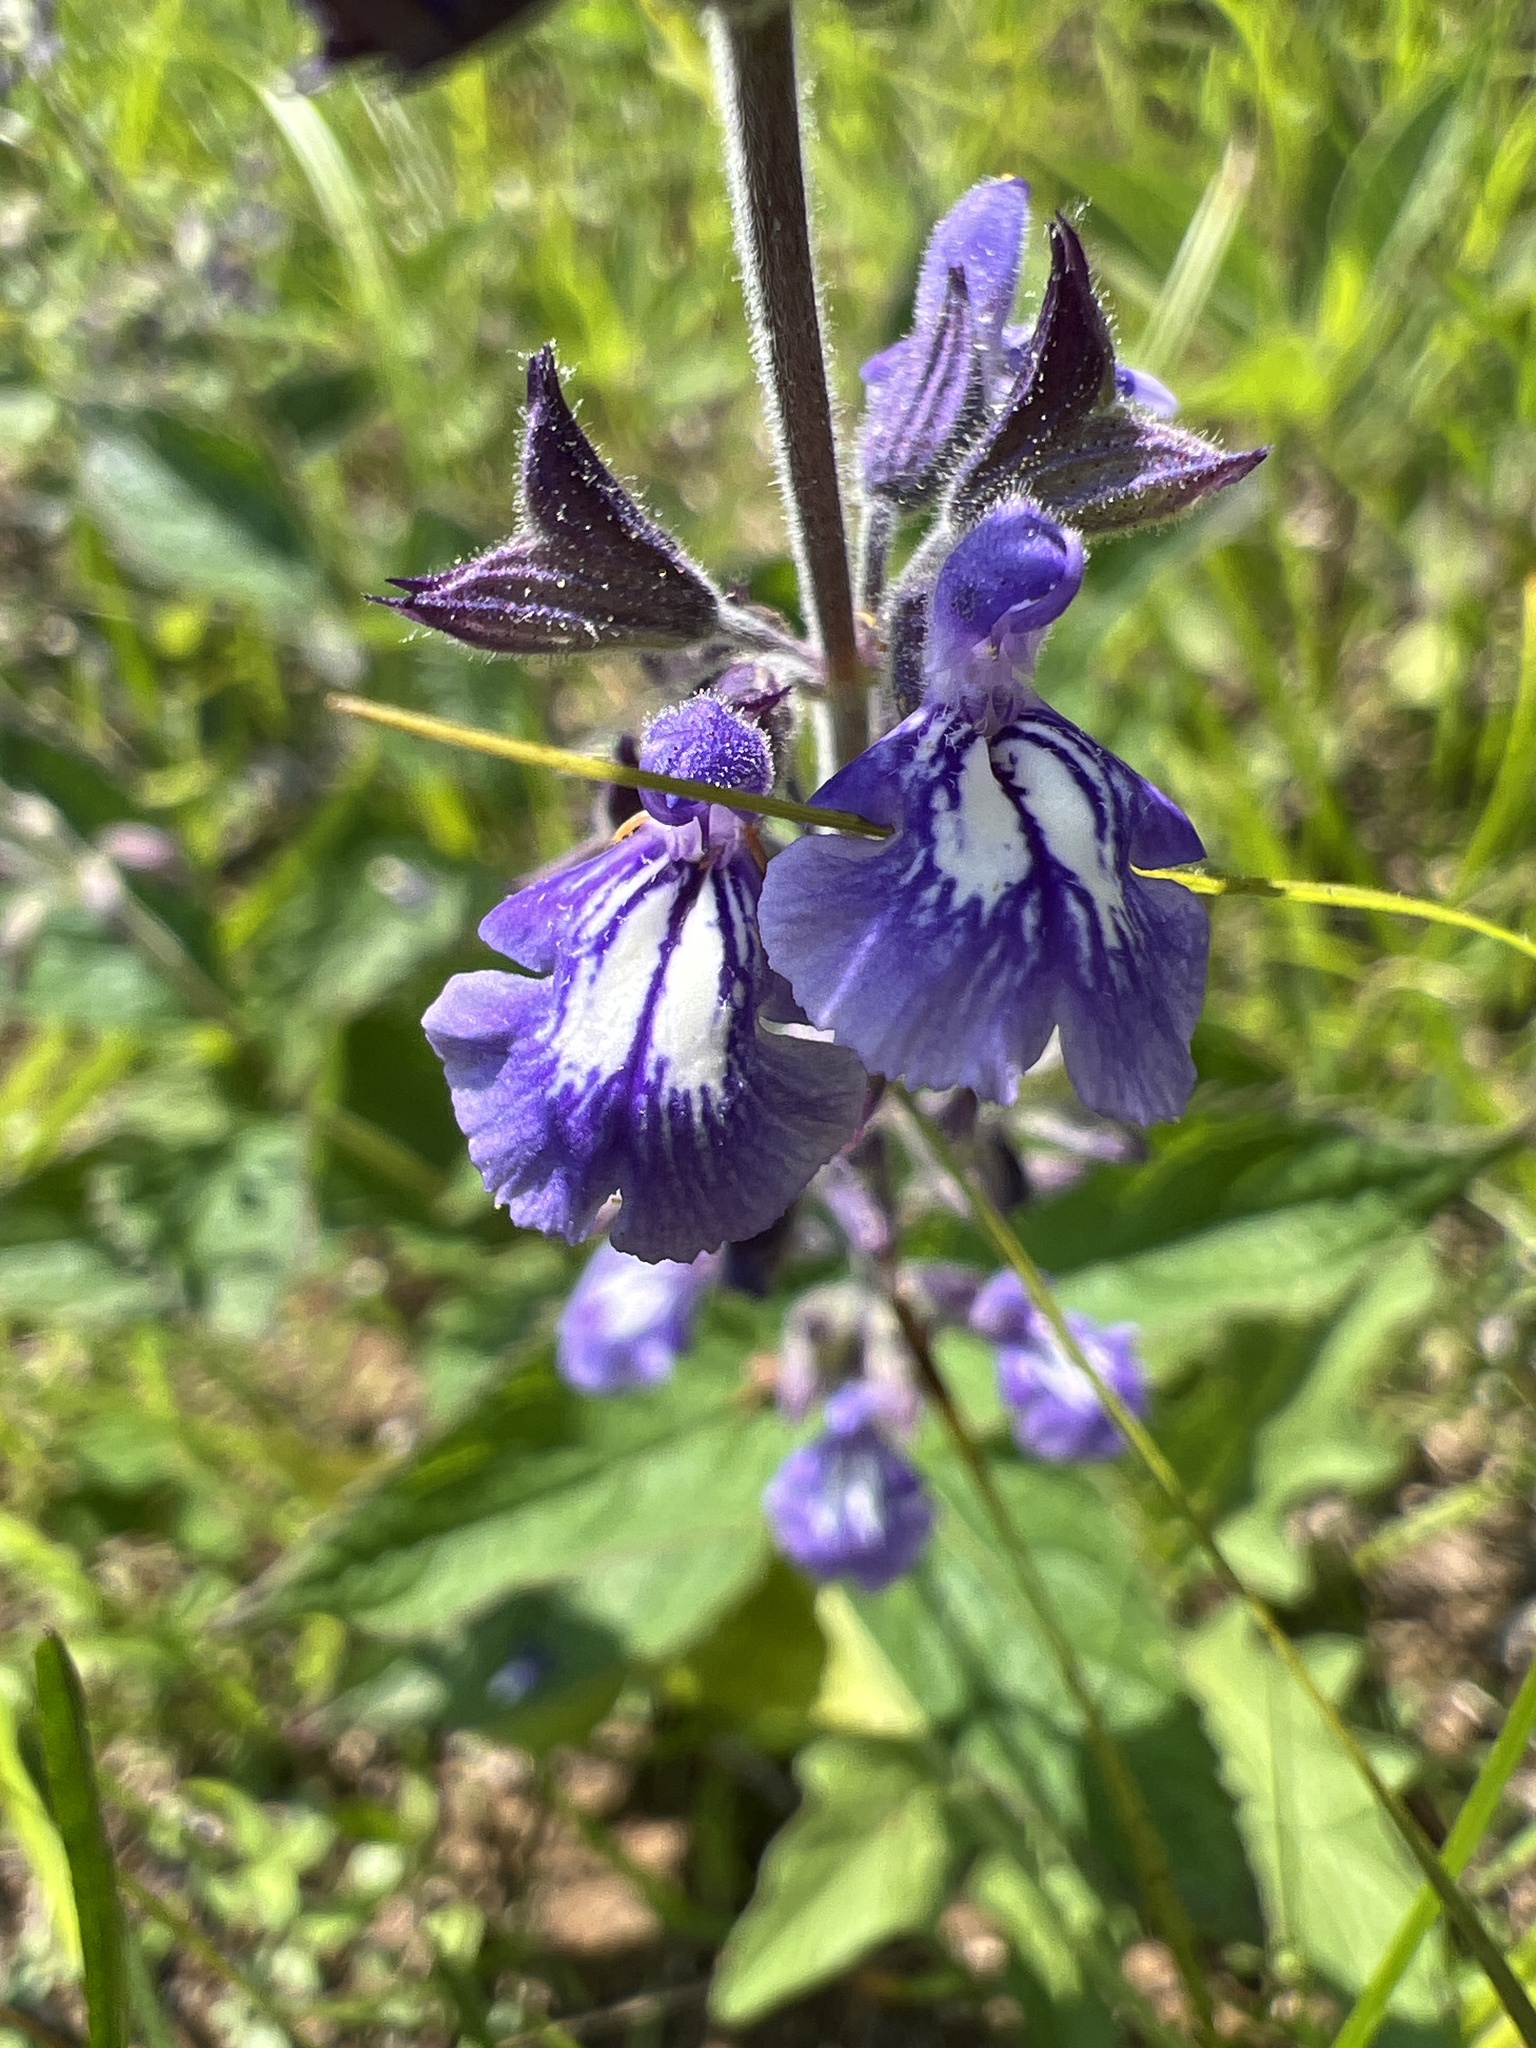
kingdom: Plantae
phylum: Tracheophyta
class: Magnoliopsida
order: Lamiales
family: Lamiaceae
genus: Salvia
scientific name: Salvia urticifolia
